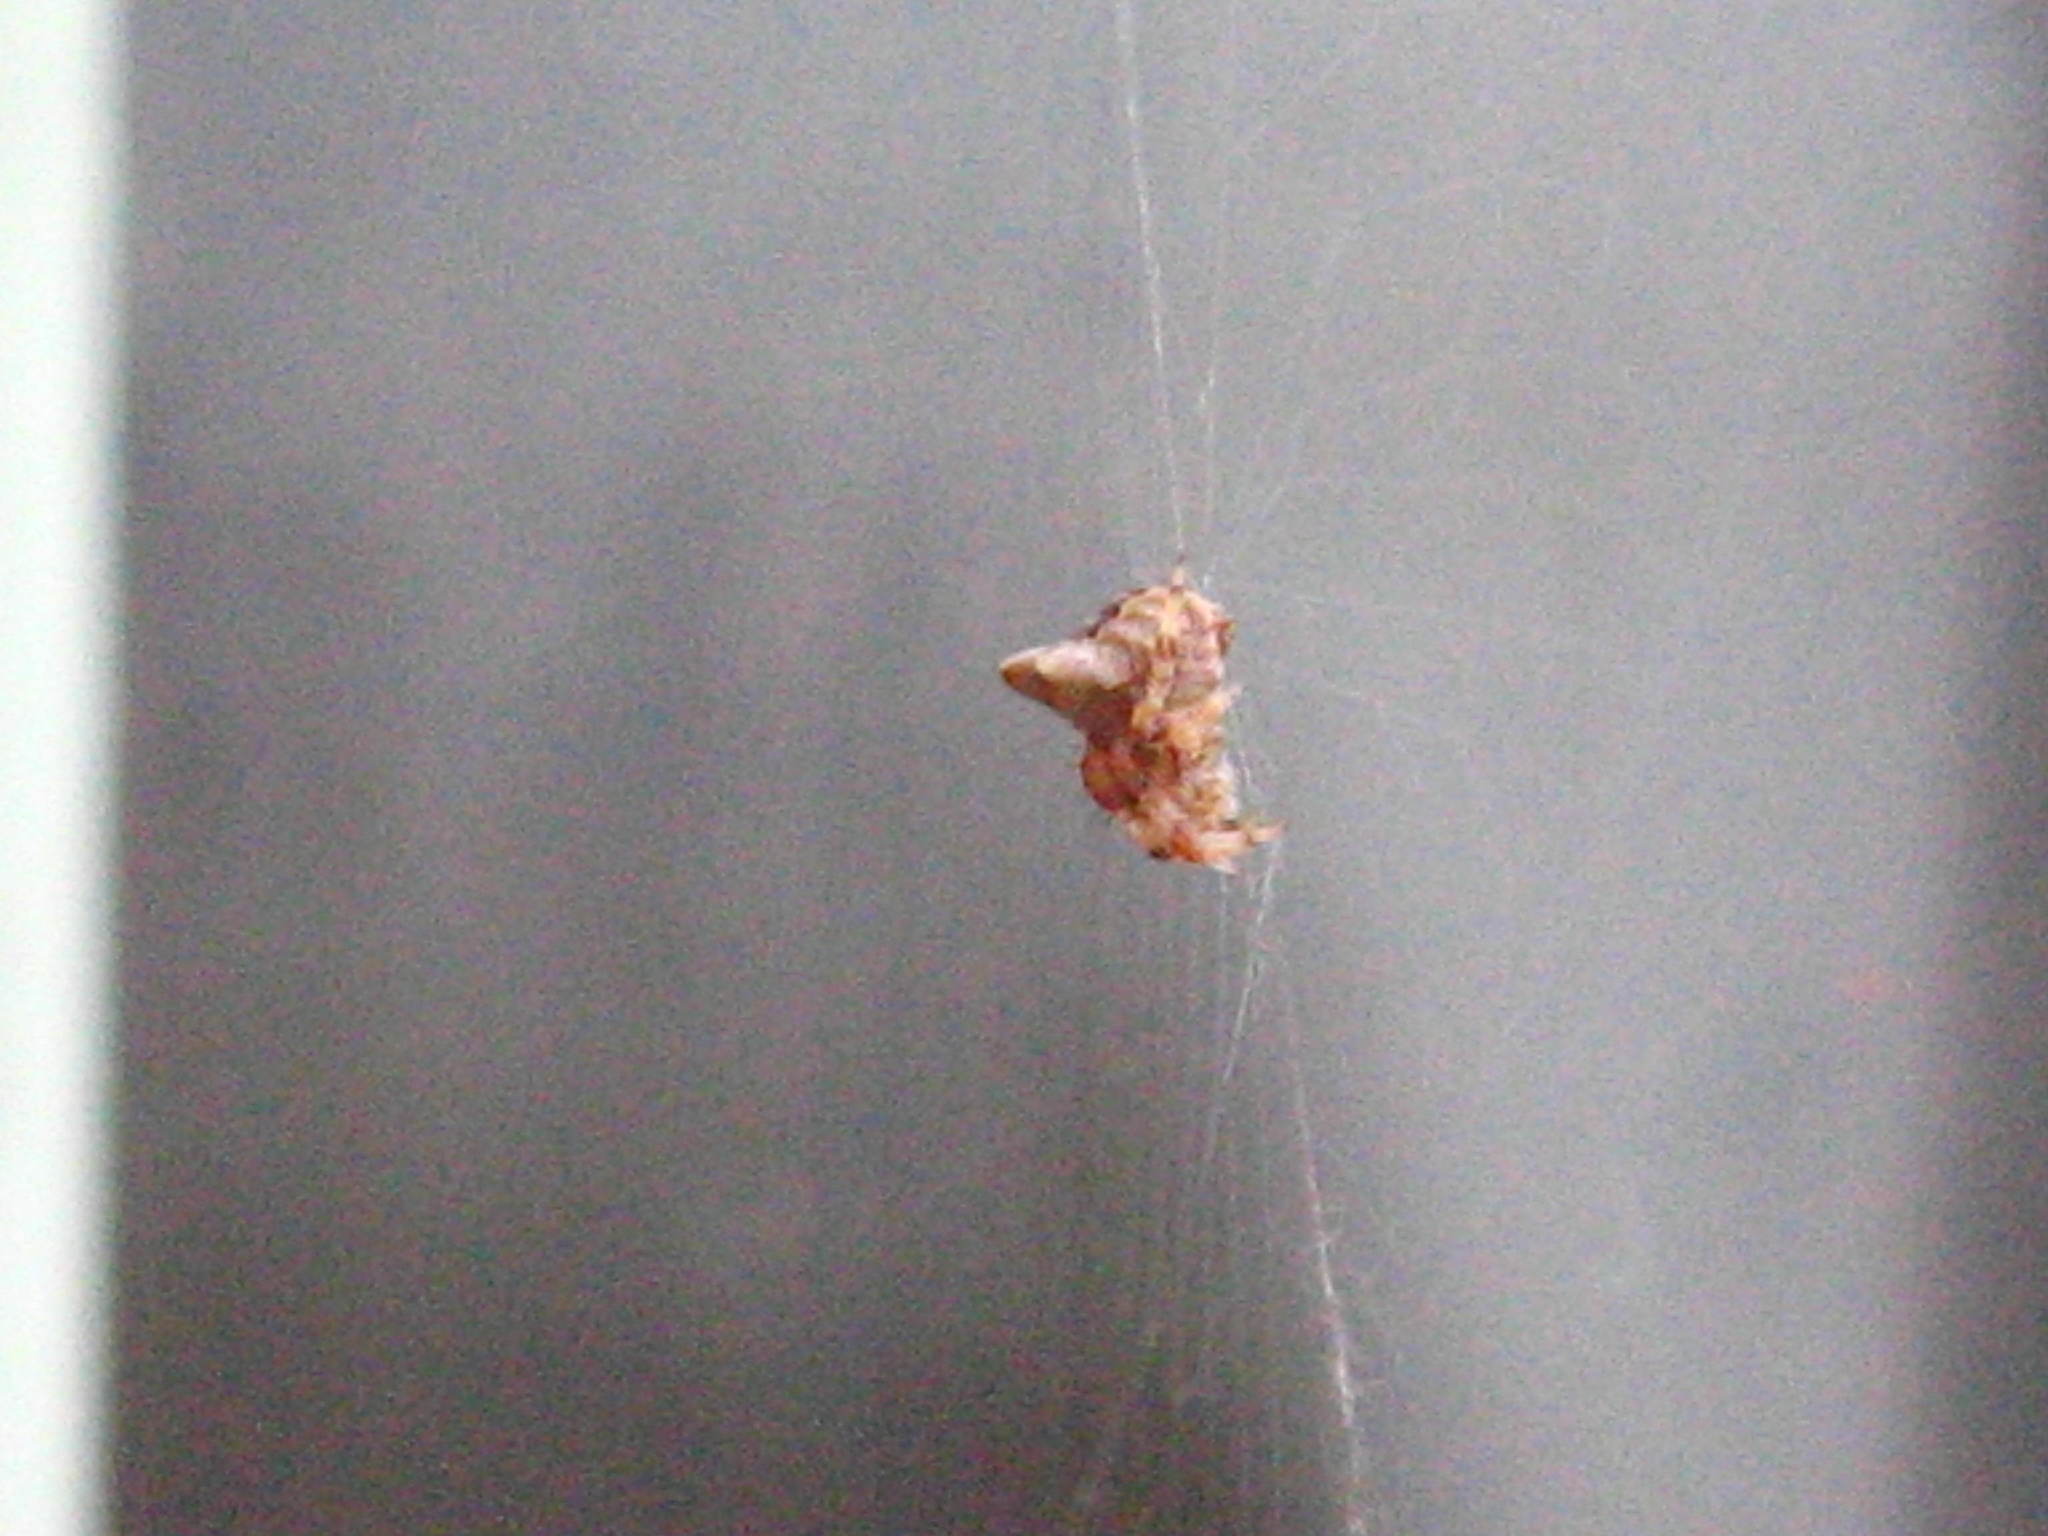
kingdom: Animalia
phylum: Arthropoda
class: Arachnida
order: Araneae
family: Araneidae
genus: Araneus
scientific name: Araneus gemmoides
